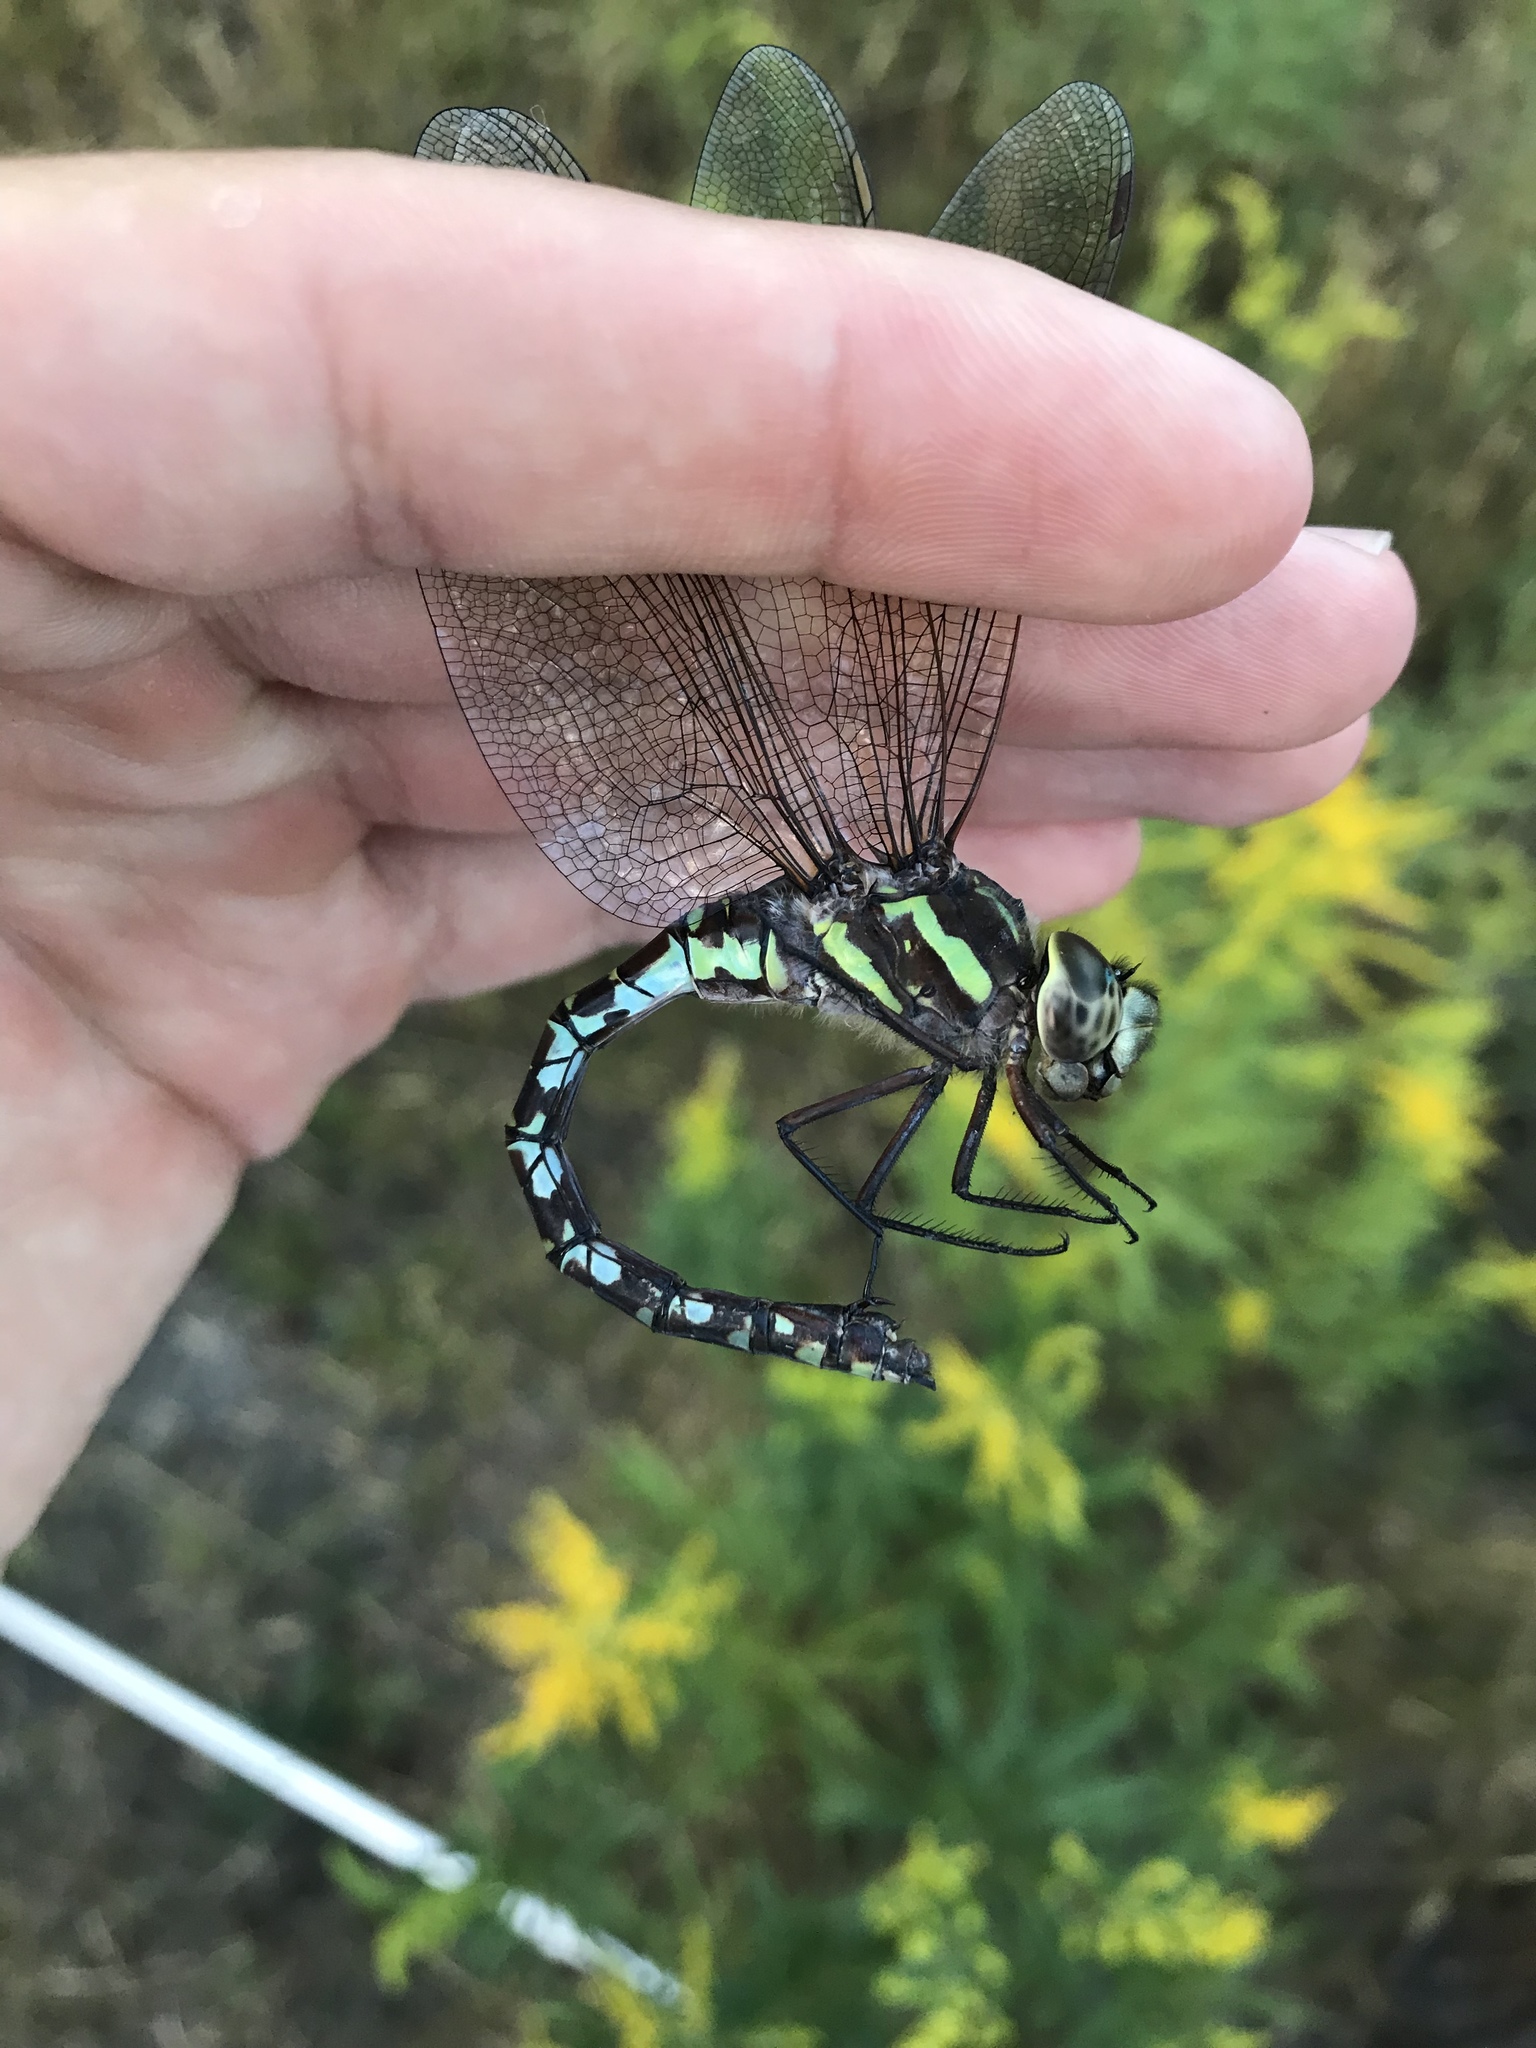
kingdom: Animalia
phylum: Arthropoda
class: Insecta
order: Odonata
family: Aeshnidae
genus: Aeshna
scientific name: Aeshna verticalis
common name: Green-striped darner
